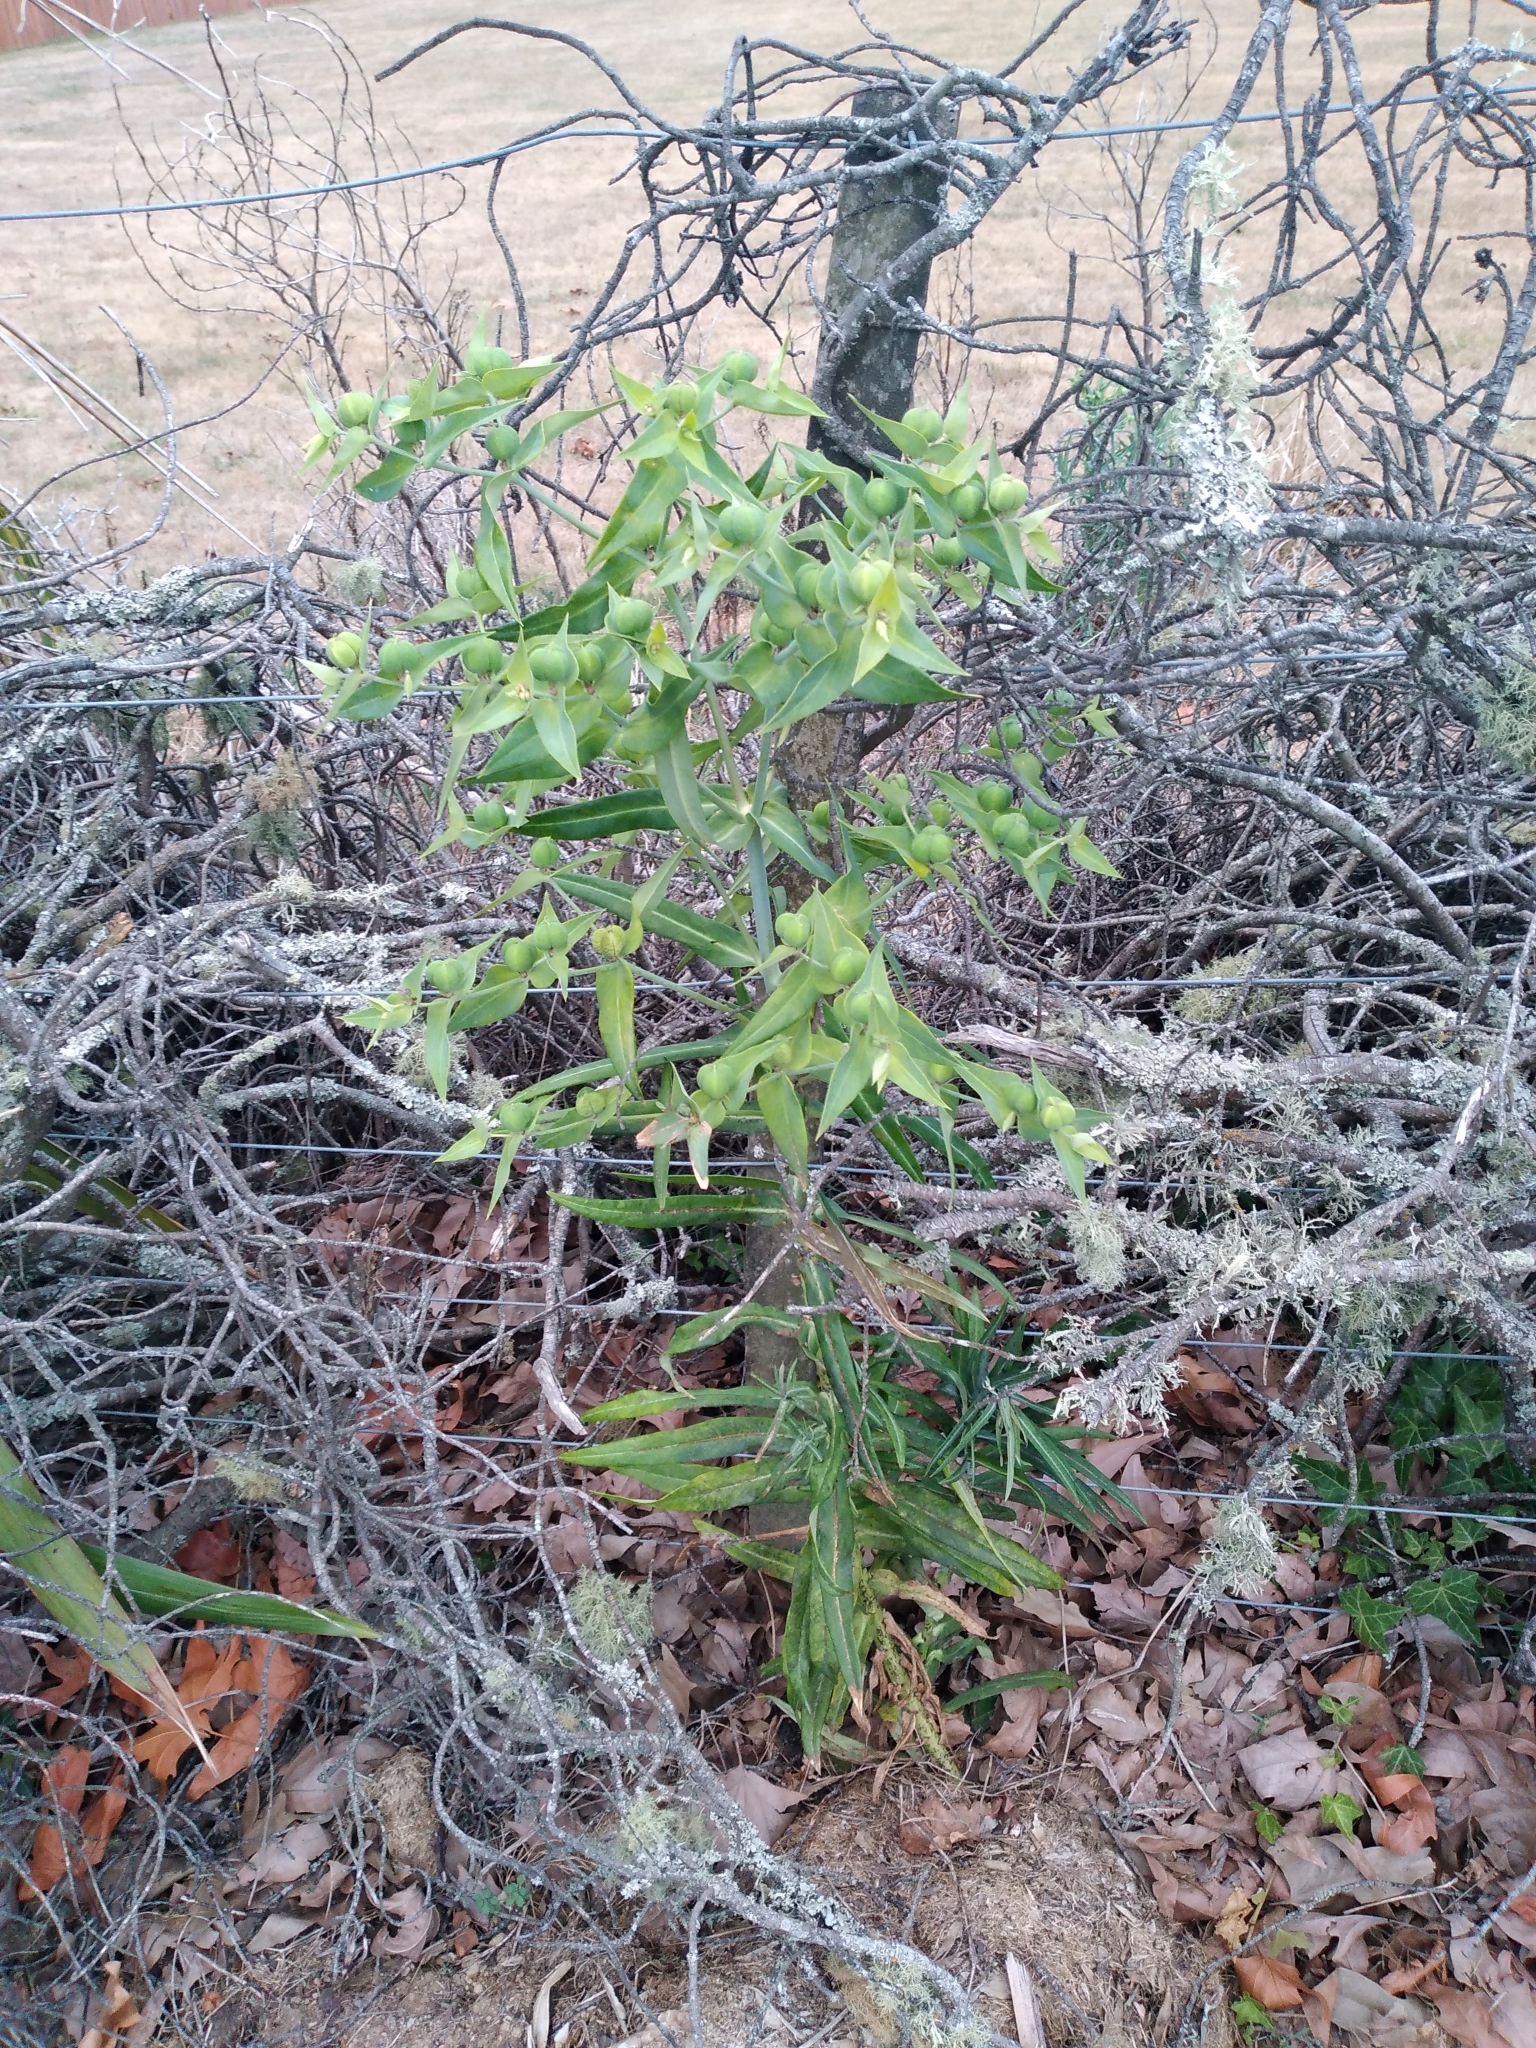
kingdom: Plantae
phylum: Tracheophyta
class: Magnoliopsida
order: Malpighiales
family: Euphorbiaceae
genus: Euphorbia
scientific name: Euphorbia lathyris
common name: Caper spurge
